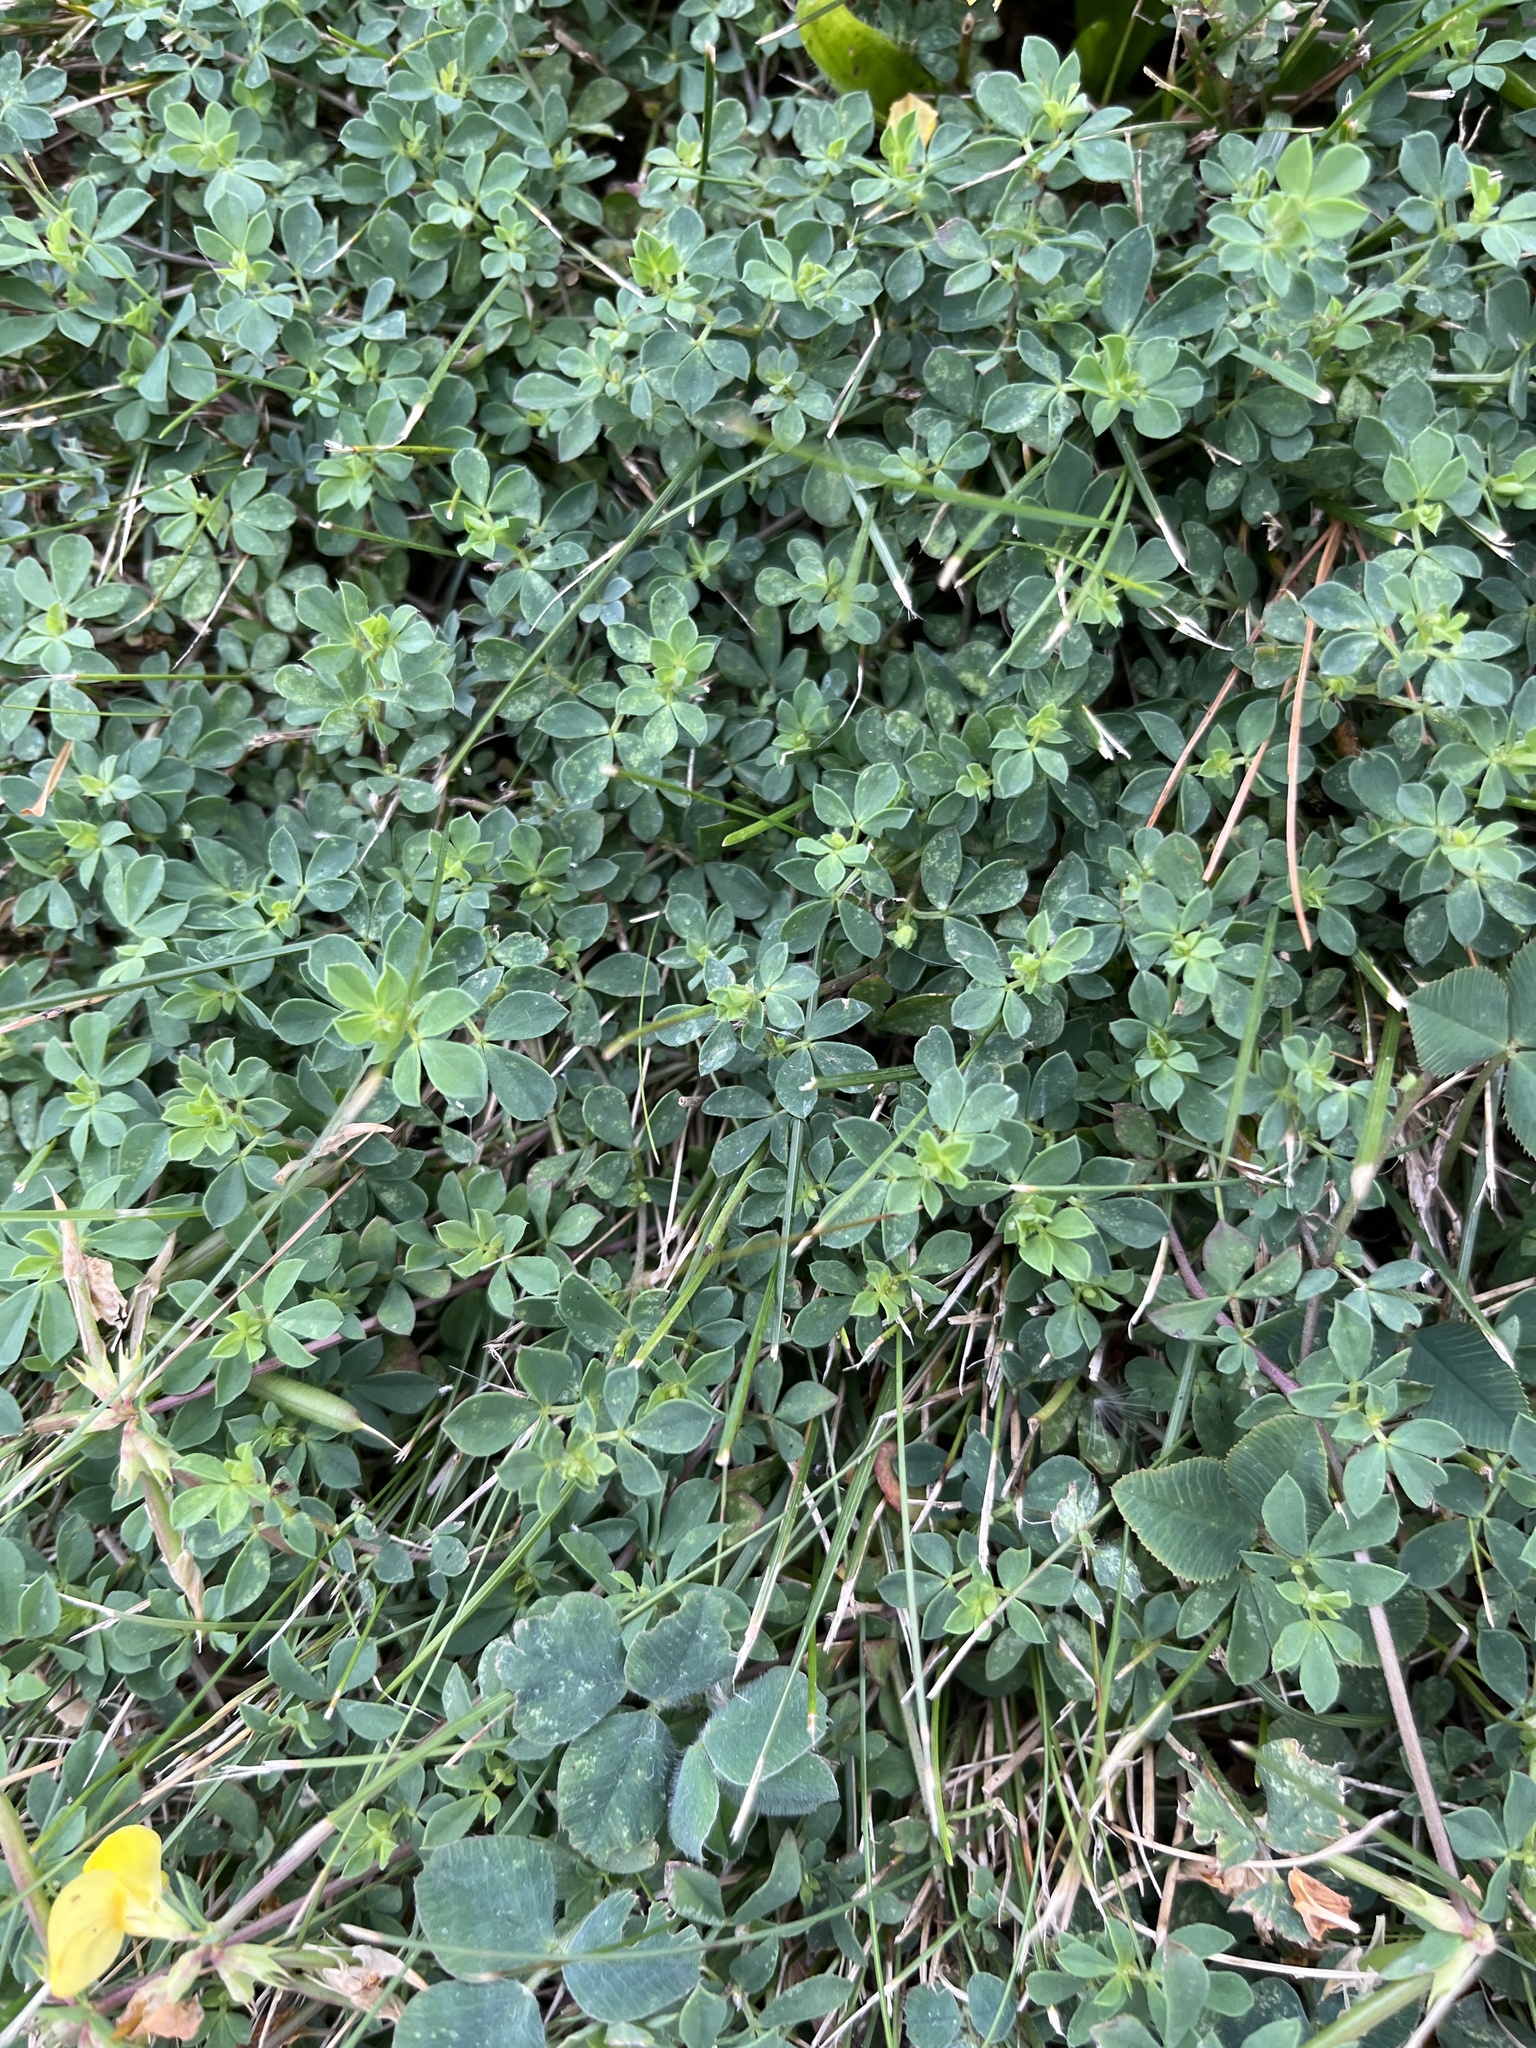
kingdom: Plantae
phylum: Tracheophyta
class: Magnoliopsida
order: Fabales
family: Fabaceae
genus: Lotus
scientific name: Lotus corniculatus
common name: Common bird's-foot-trefoil
